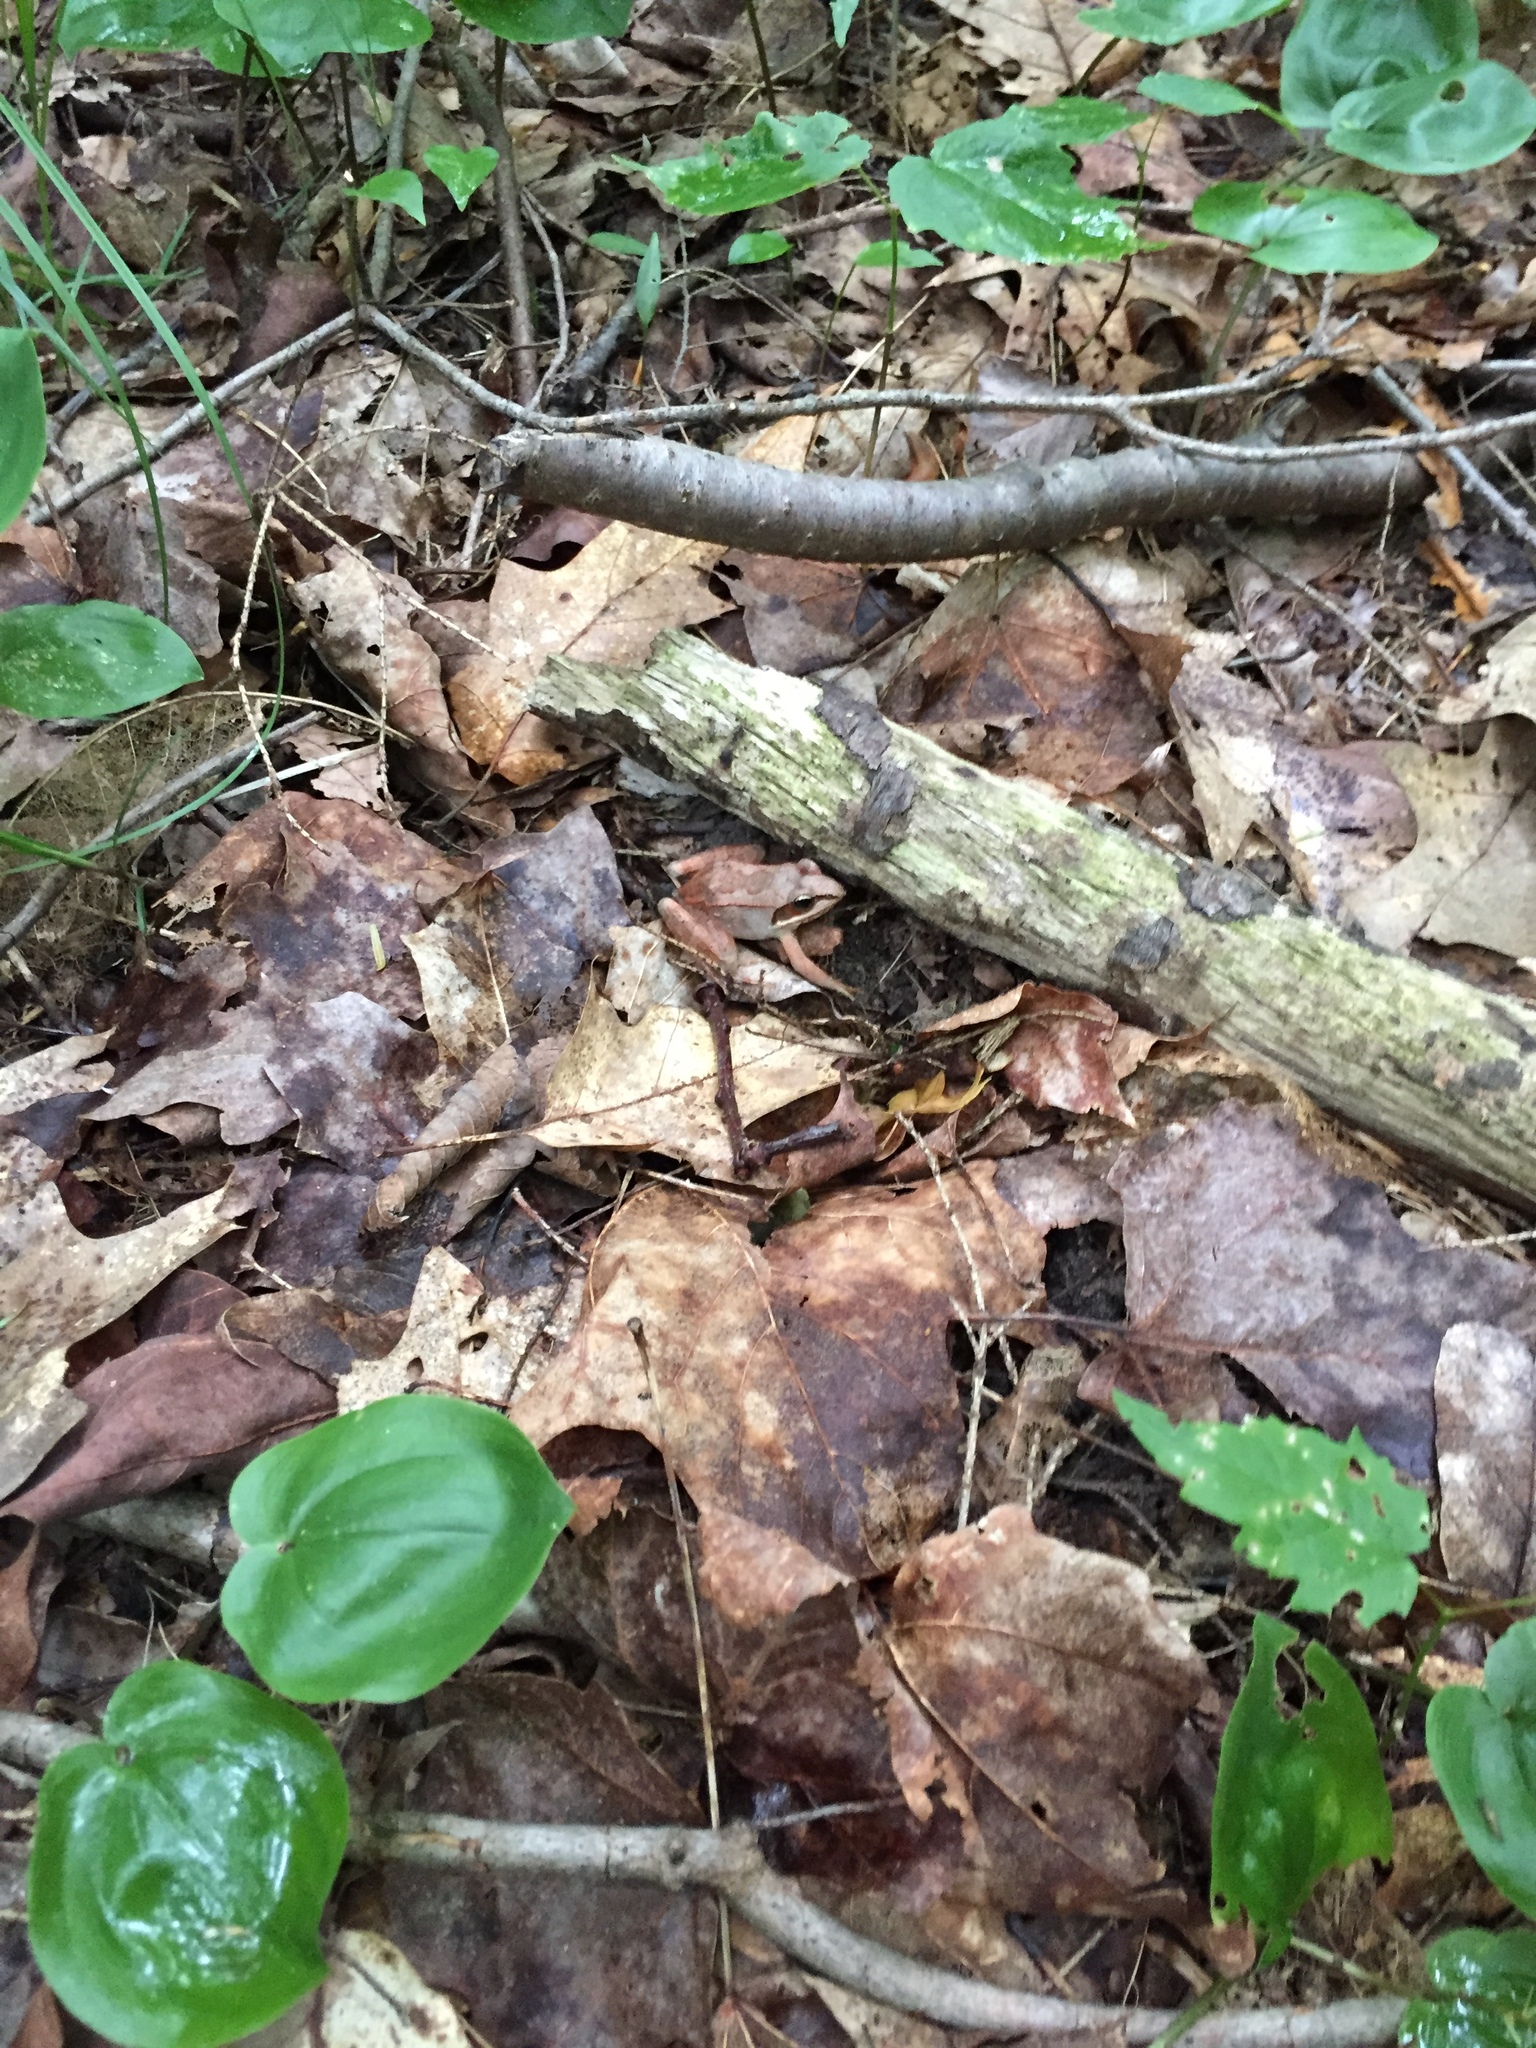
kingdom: Animalia
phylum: Chordata
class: Amphibia
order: Anura
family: Ranidae
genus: Lithobates
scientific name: Lithobates sylvaticus
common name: Wood frog
